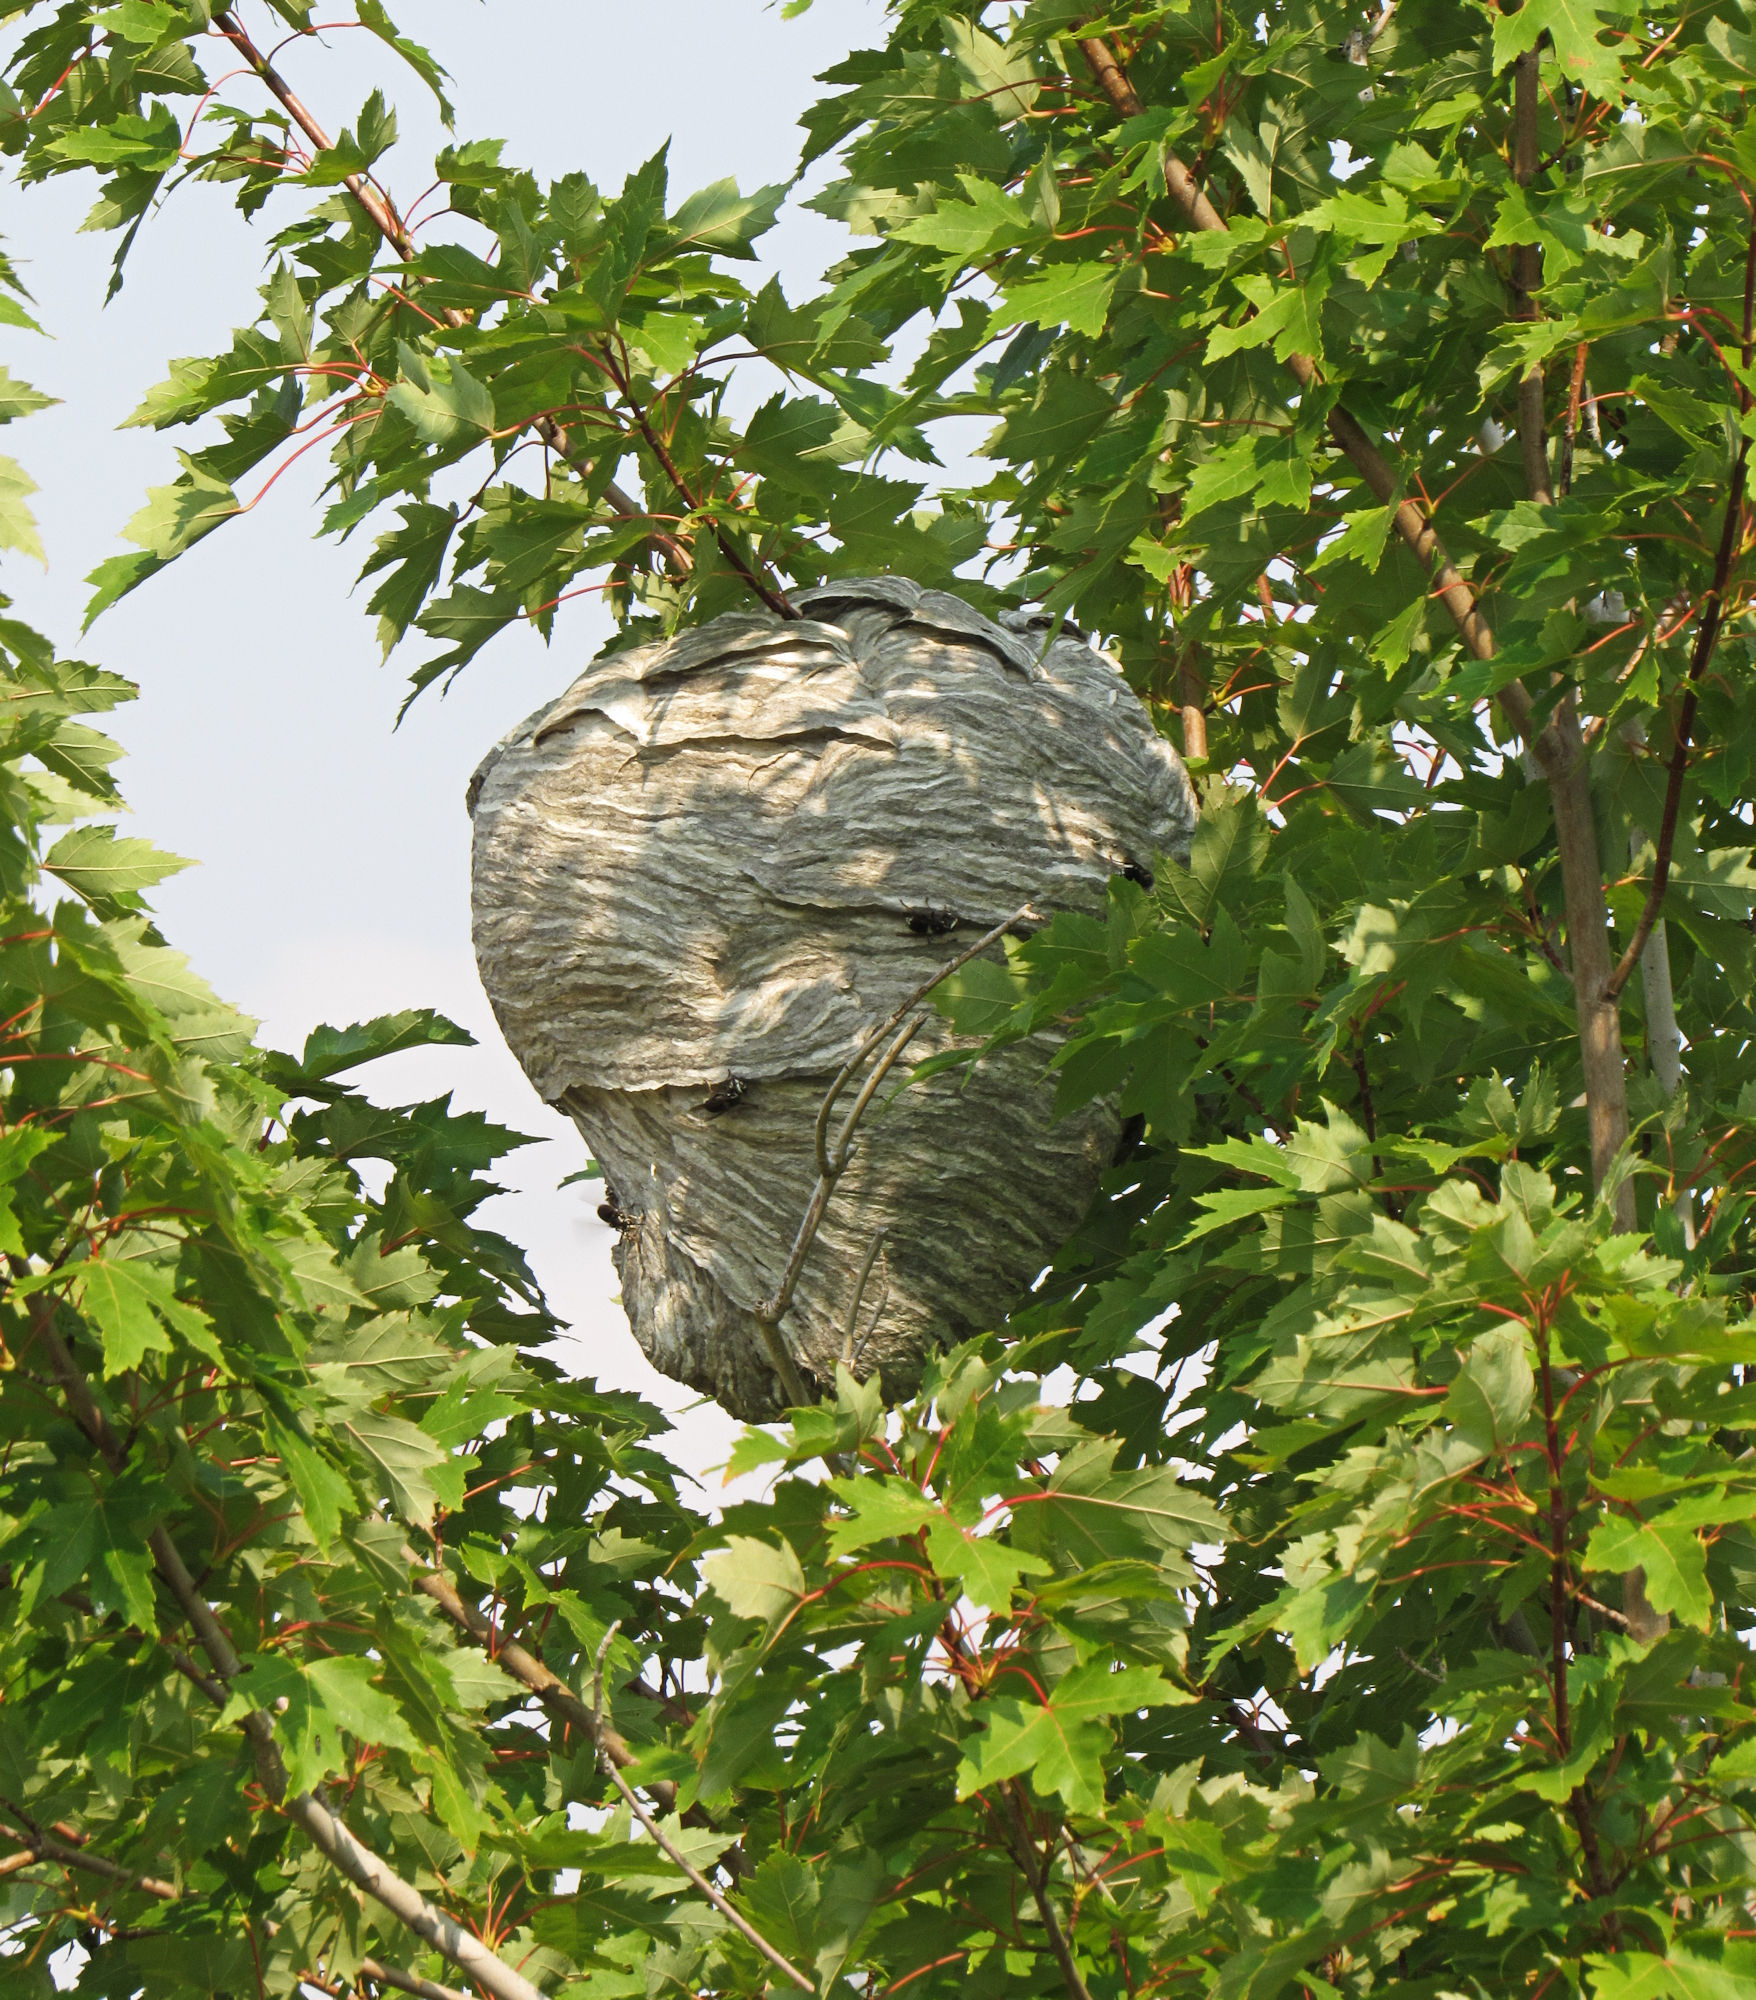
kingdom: Animalia
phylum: Arthropoda
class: Insecta
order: Hymenoptera
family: Vespidae
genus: Dolichovespula
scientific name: Dolichovespula maculata
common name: Bald-faced hornet
